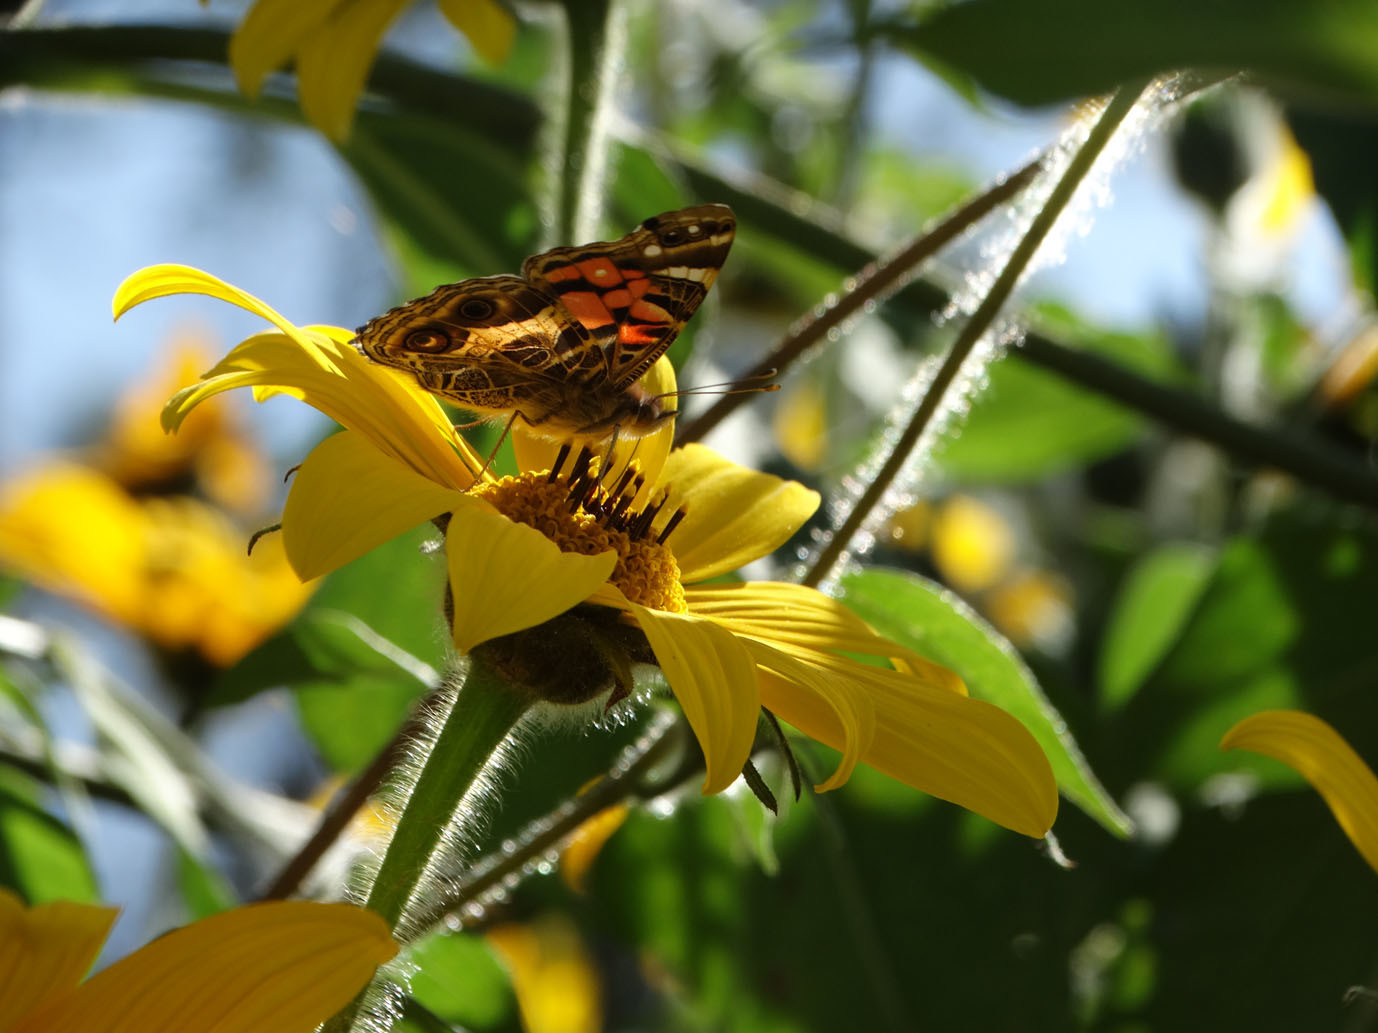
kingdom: Animalia
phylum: Arthropoda
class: Insecta
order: Lepidoptera
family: Nymphalidae
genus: Vanessa
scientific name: Vanessa virginiensis
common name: American lady
